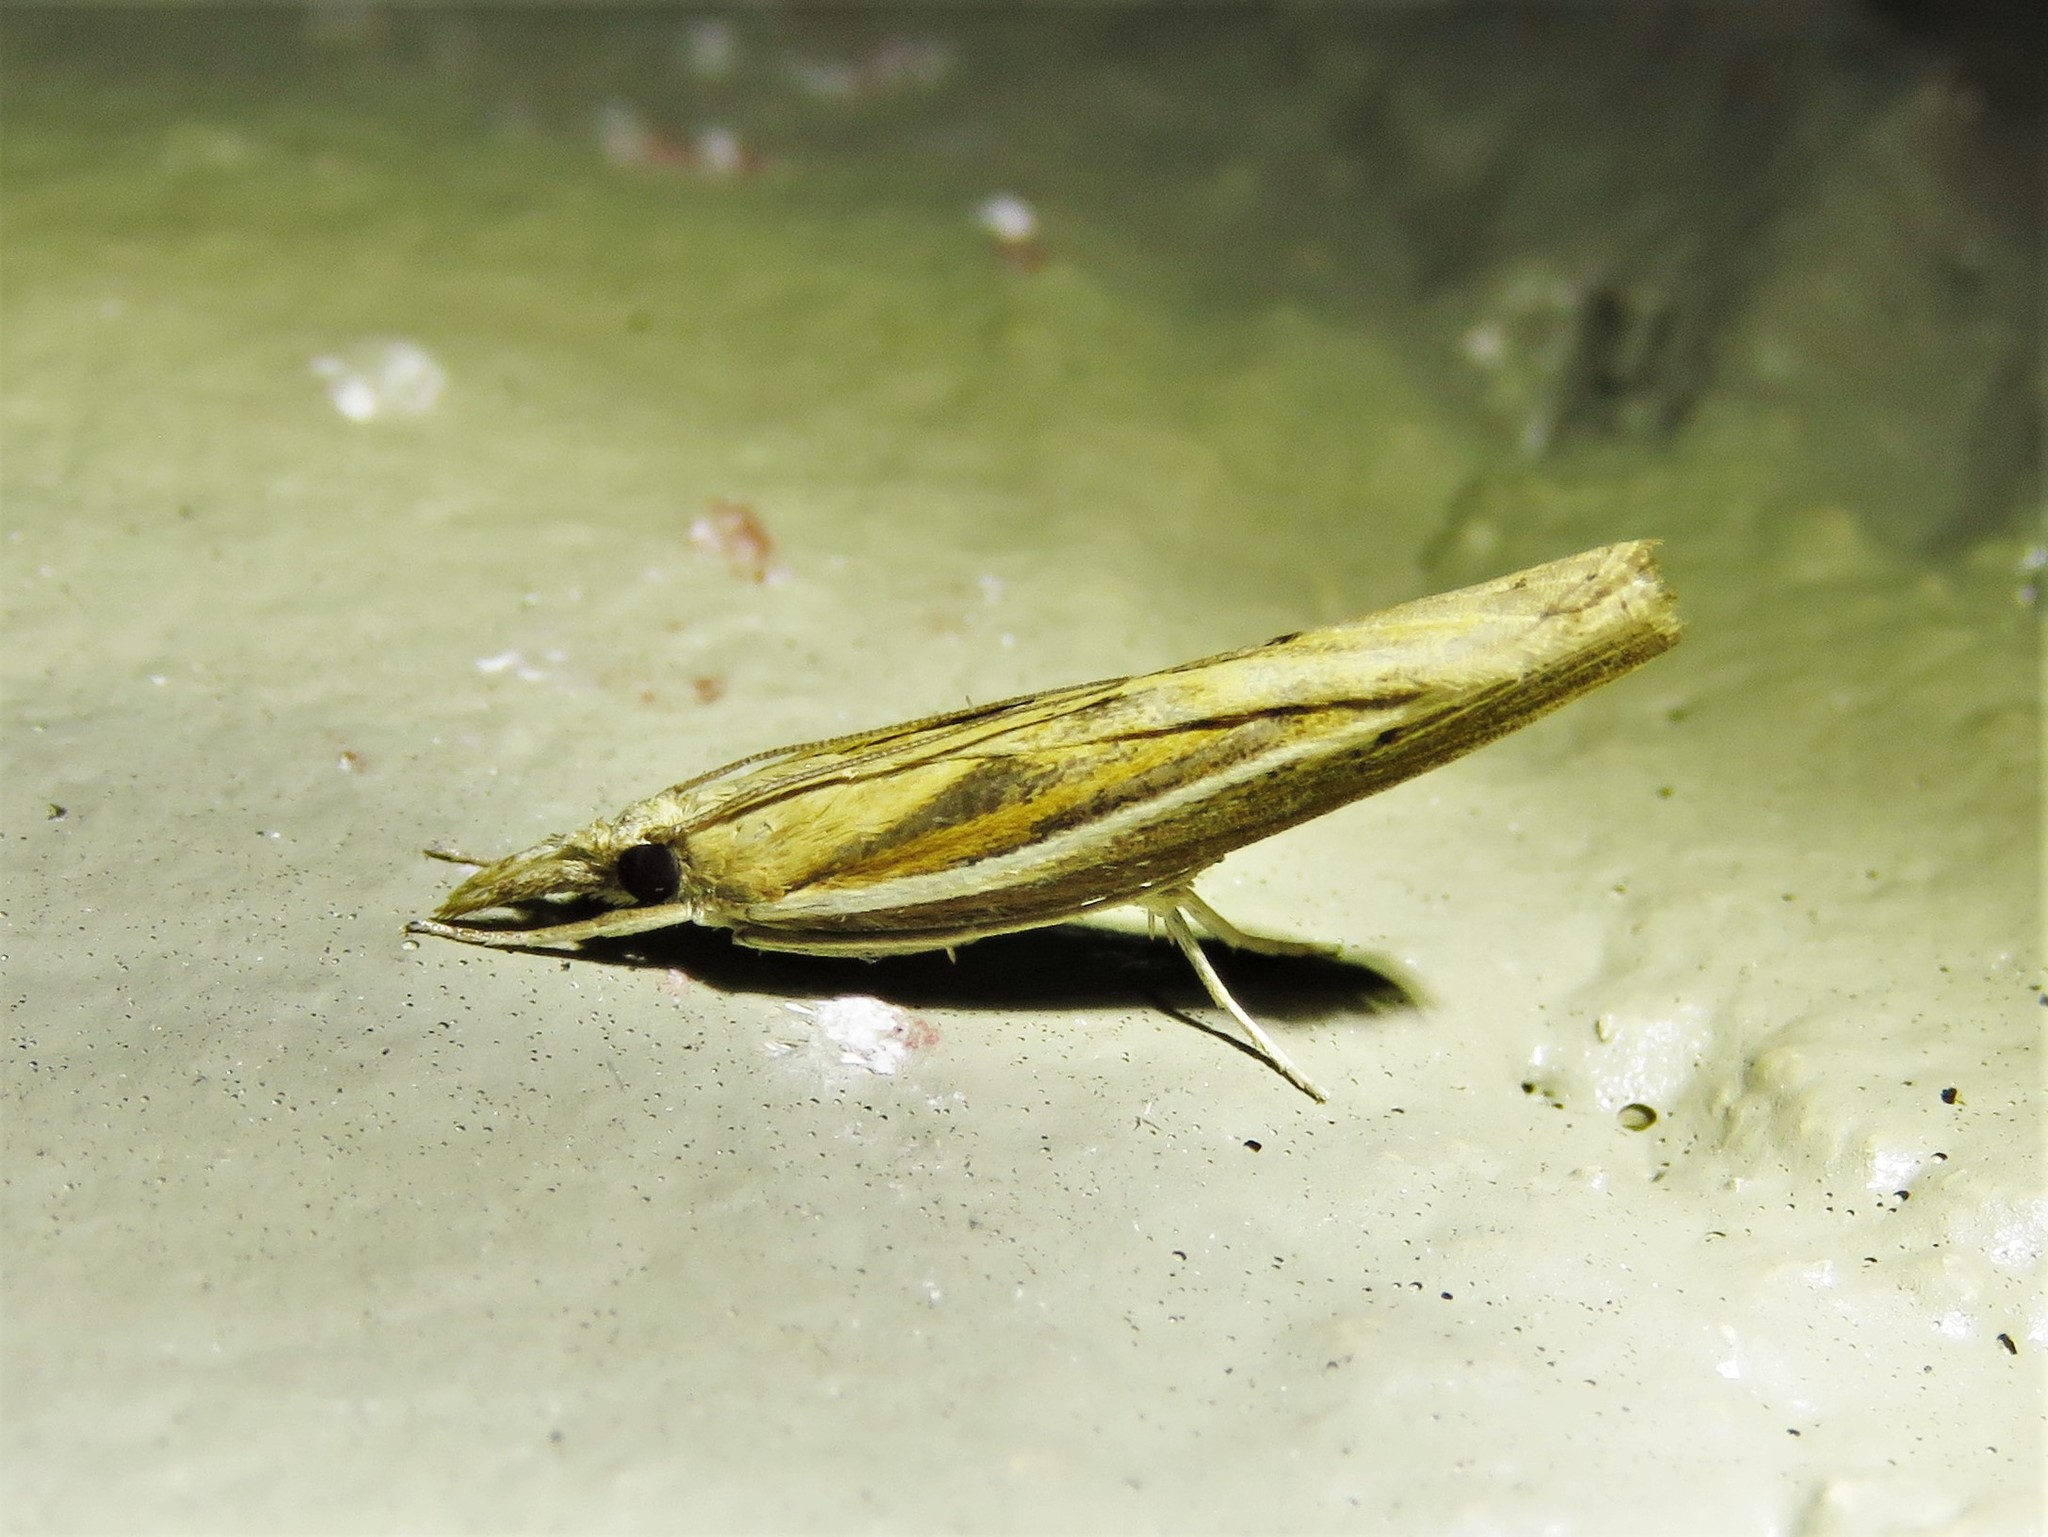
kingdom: Animalia
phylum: Arthropoda
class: Insecta
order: Lepidoptera
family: Crambidae
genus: Fissicrambus
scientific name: Fissicrambus profanellus
